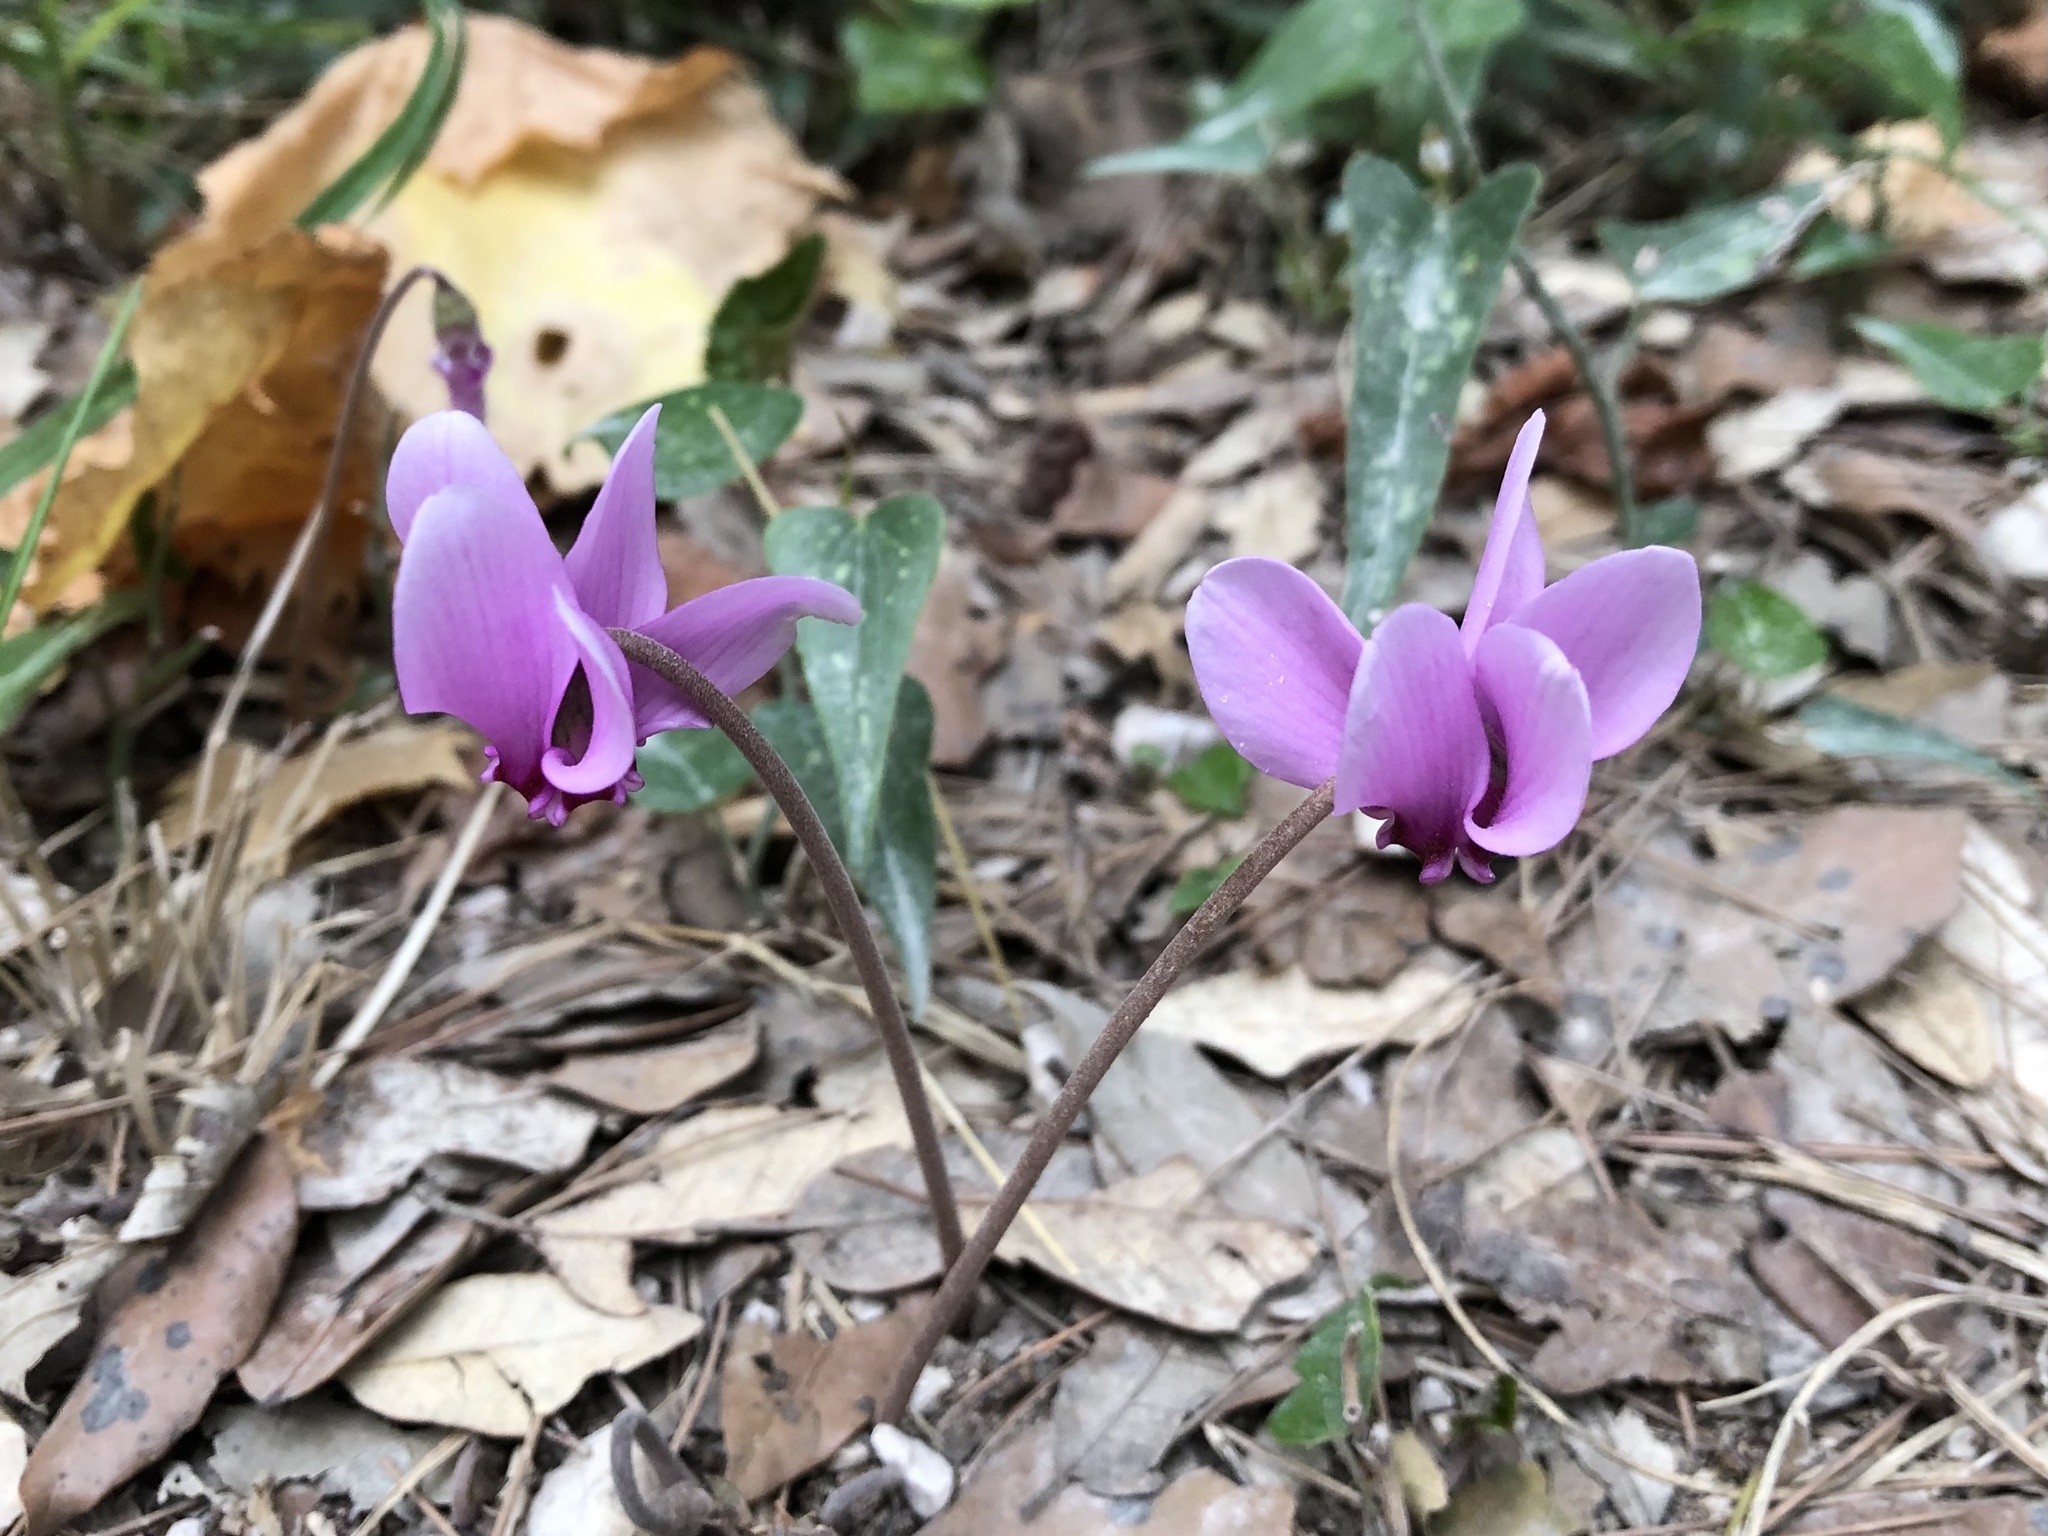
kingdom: Plantae
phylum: Tracheophyta
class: Magnoliopsida
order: Ericales
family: Primulaceae
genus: Cyclamen
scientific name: Cyclamen hederifolium
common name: Sowbread
